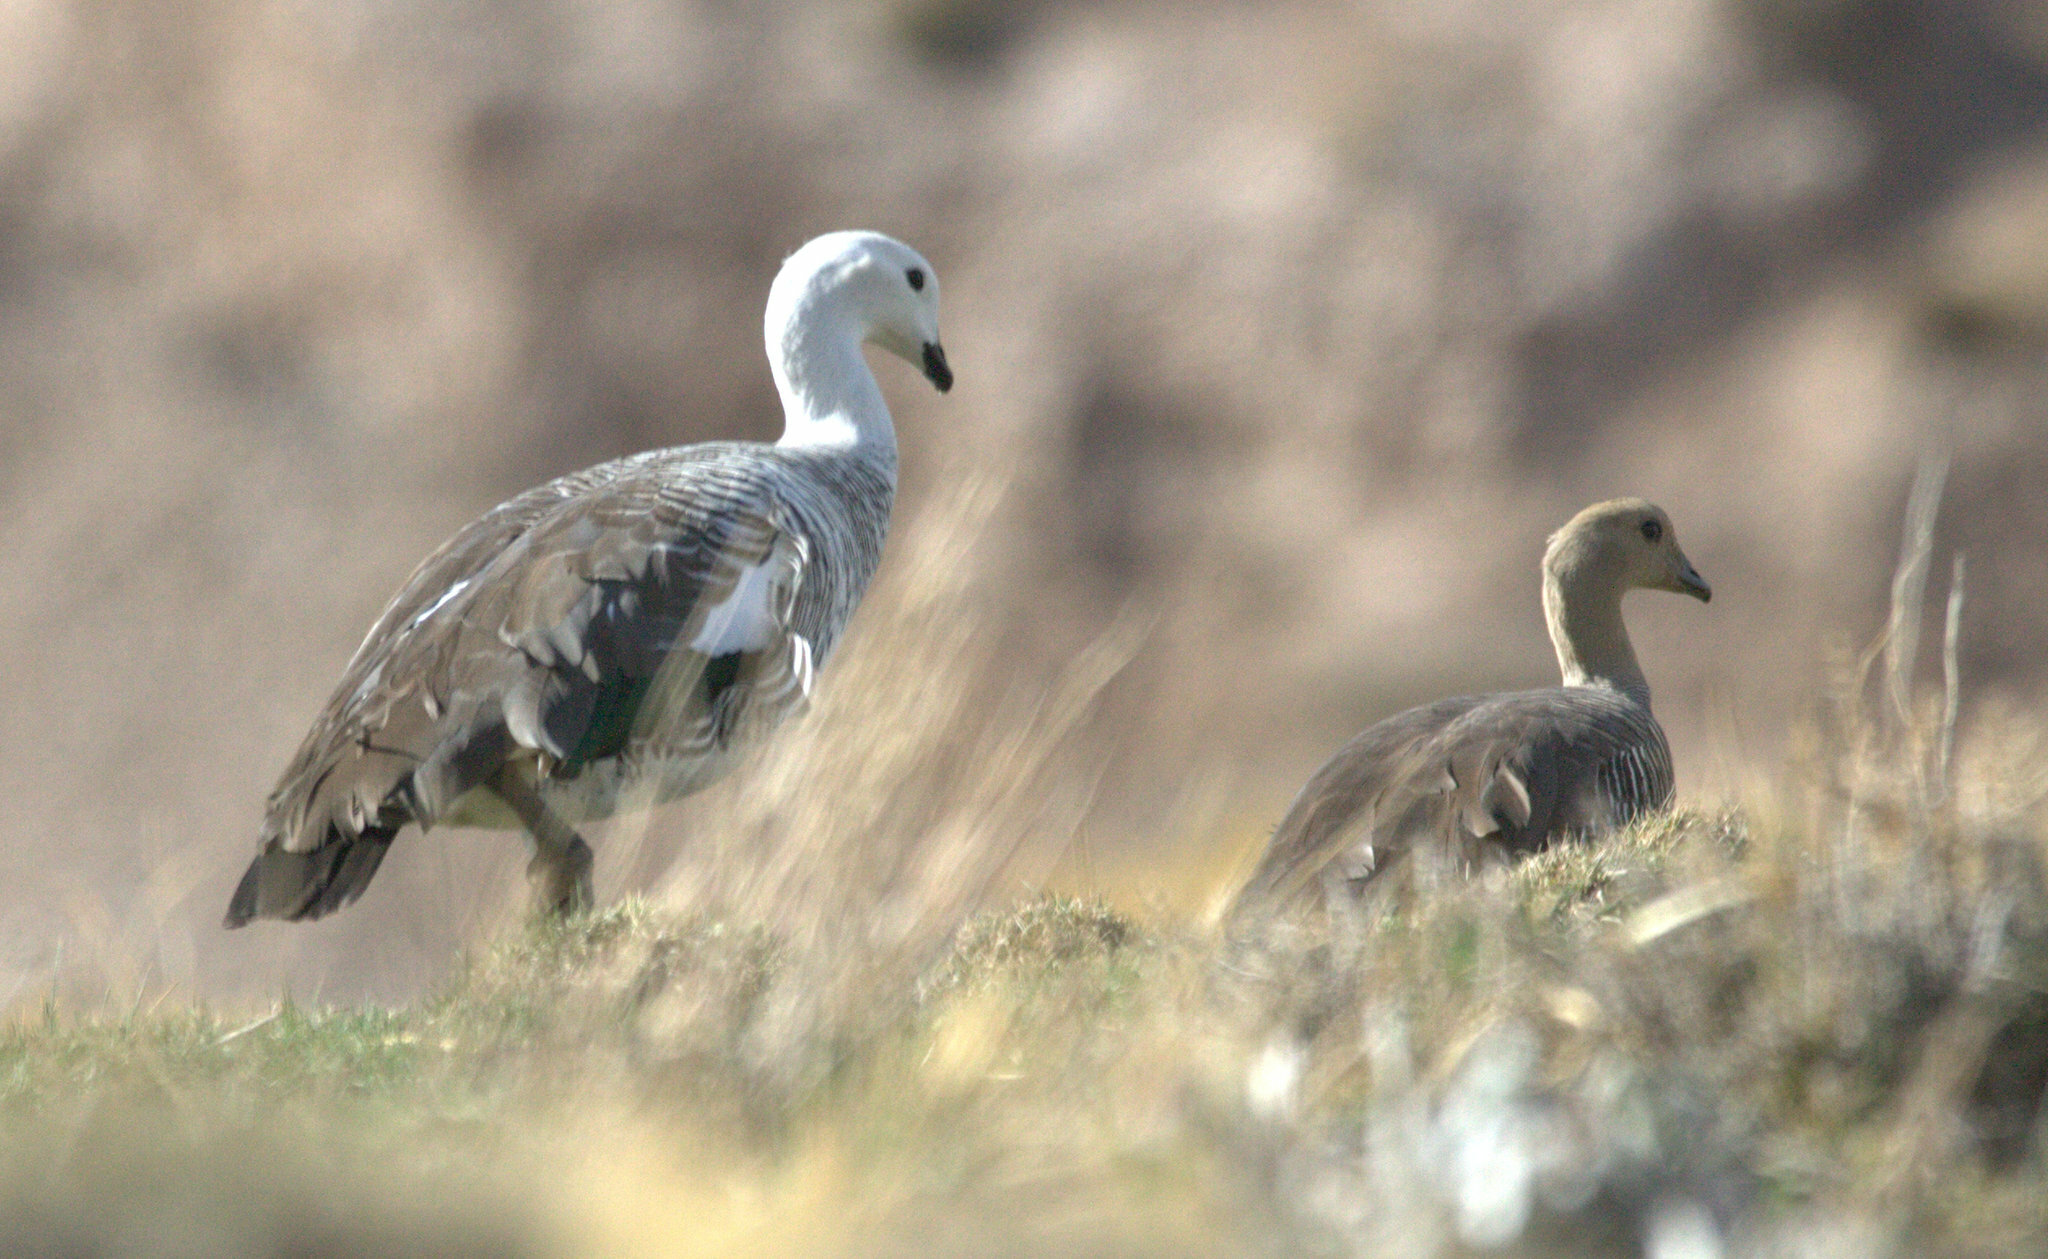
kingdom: Animalia
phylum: Chordata
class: Aves
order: Anseriformes
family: Anatidae
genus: Chloephaga
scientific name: Chloephaga picta
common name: Upland goose
